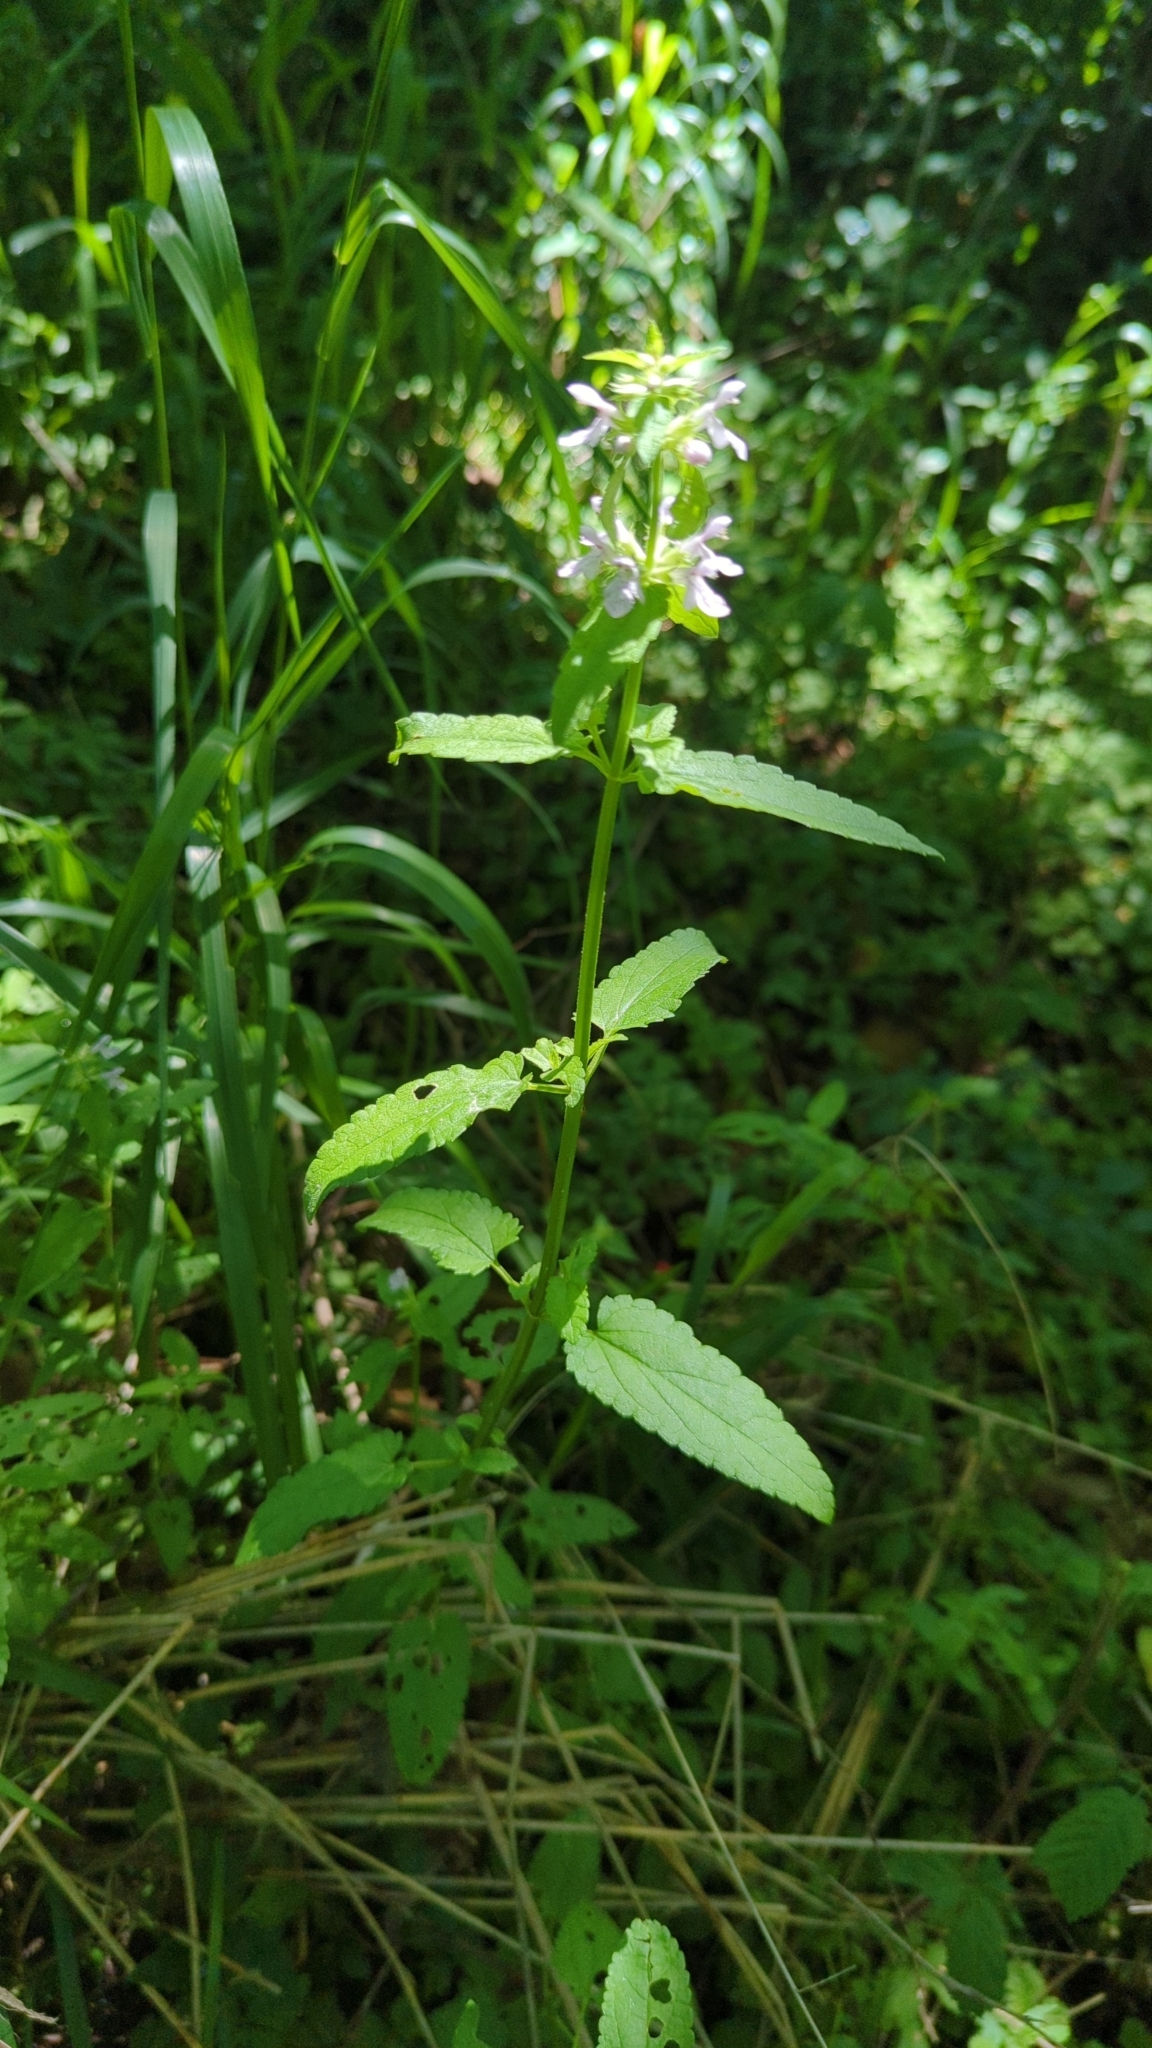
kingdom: Plantae
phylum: Tracheophyta
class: Magnoliopsida
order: Lamiales
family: Lamiaceae
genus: Stachys
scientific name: Stachys floridana
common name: Florida betony
